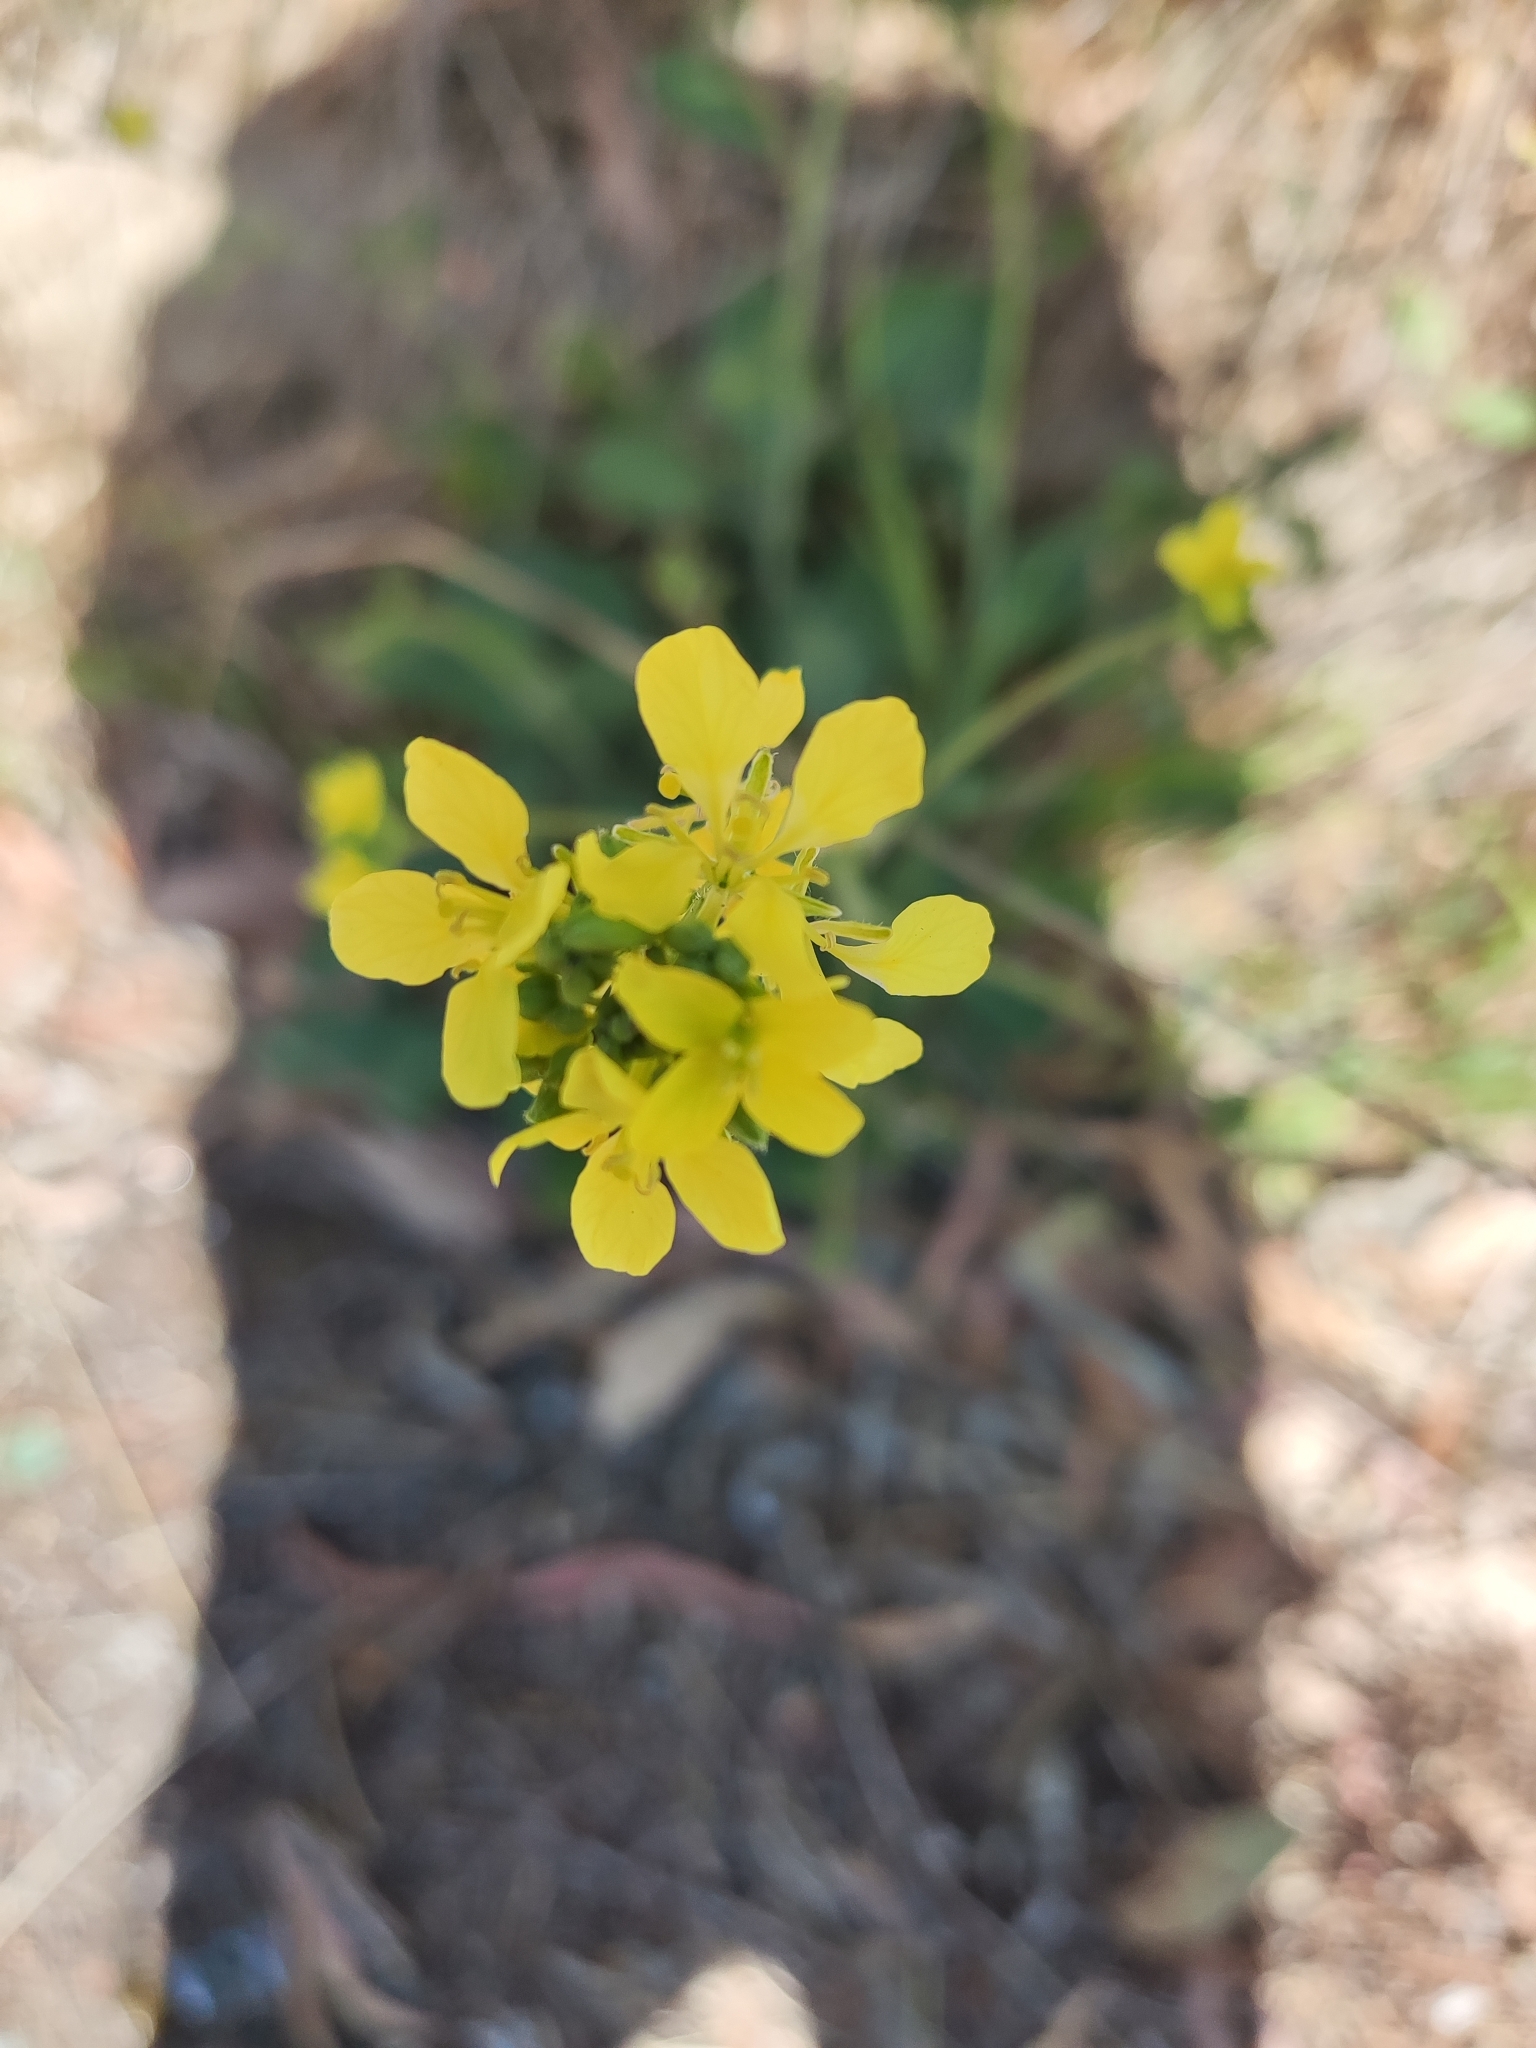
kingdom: Plantae
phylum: Tracheophyta
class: Magnoliopsida
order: Brassicales
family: Brassicaceae
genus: Hirschfeldia
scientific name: Hirschfeldia incana
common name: Hoary mustard
